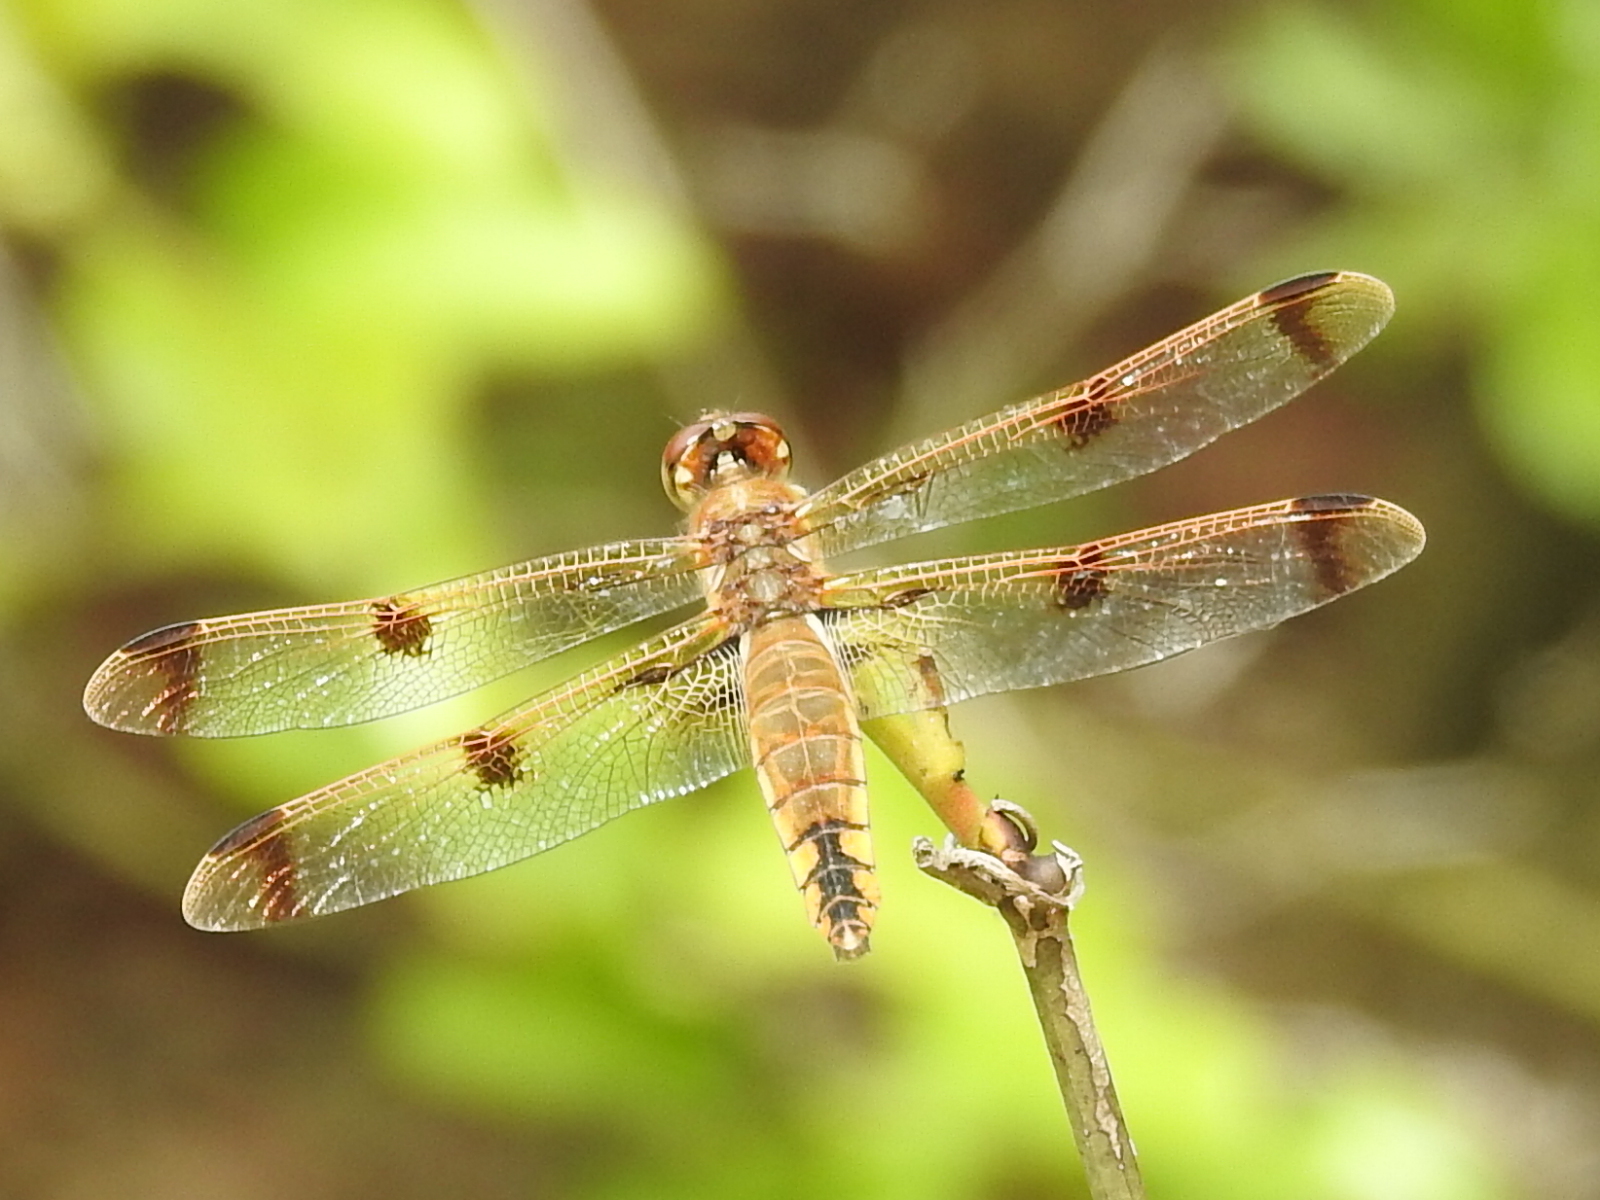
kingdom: Animalia
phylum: Arthropoda
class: Insecta
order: Odonata
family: Libellulidae
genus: Libellula
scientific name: Libellula semifasciata
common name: Painted skimmer
